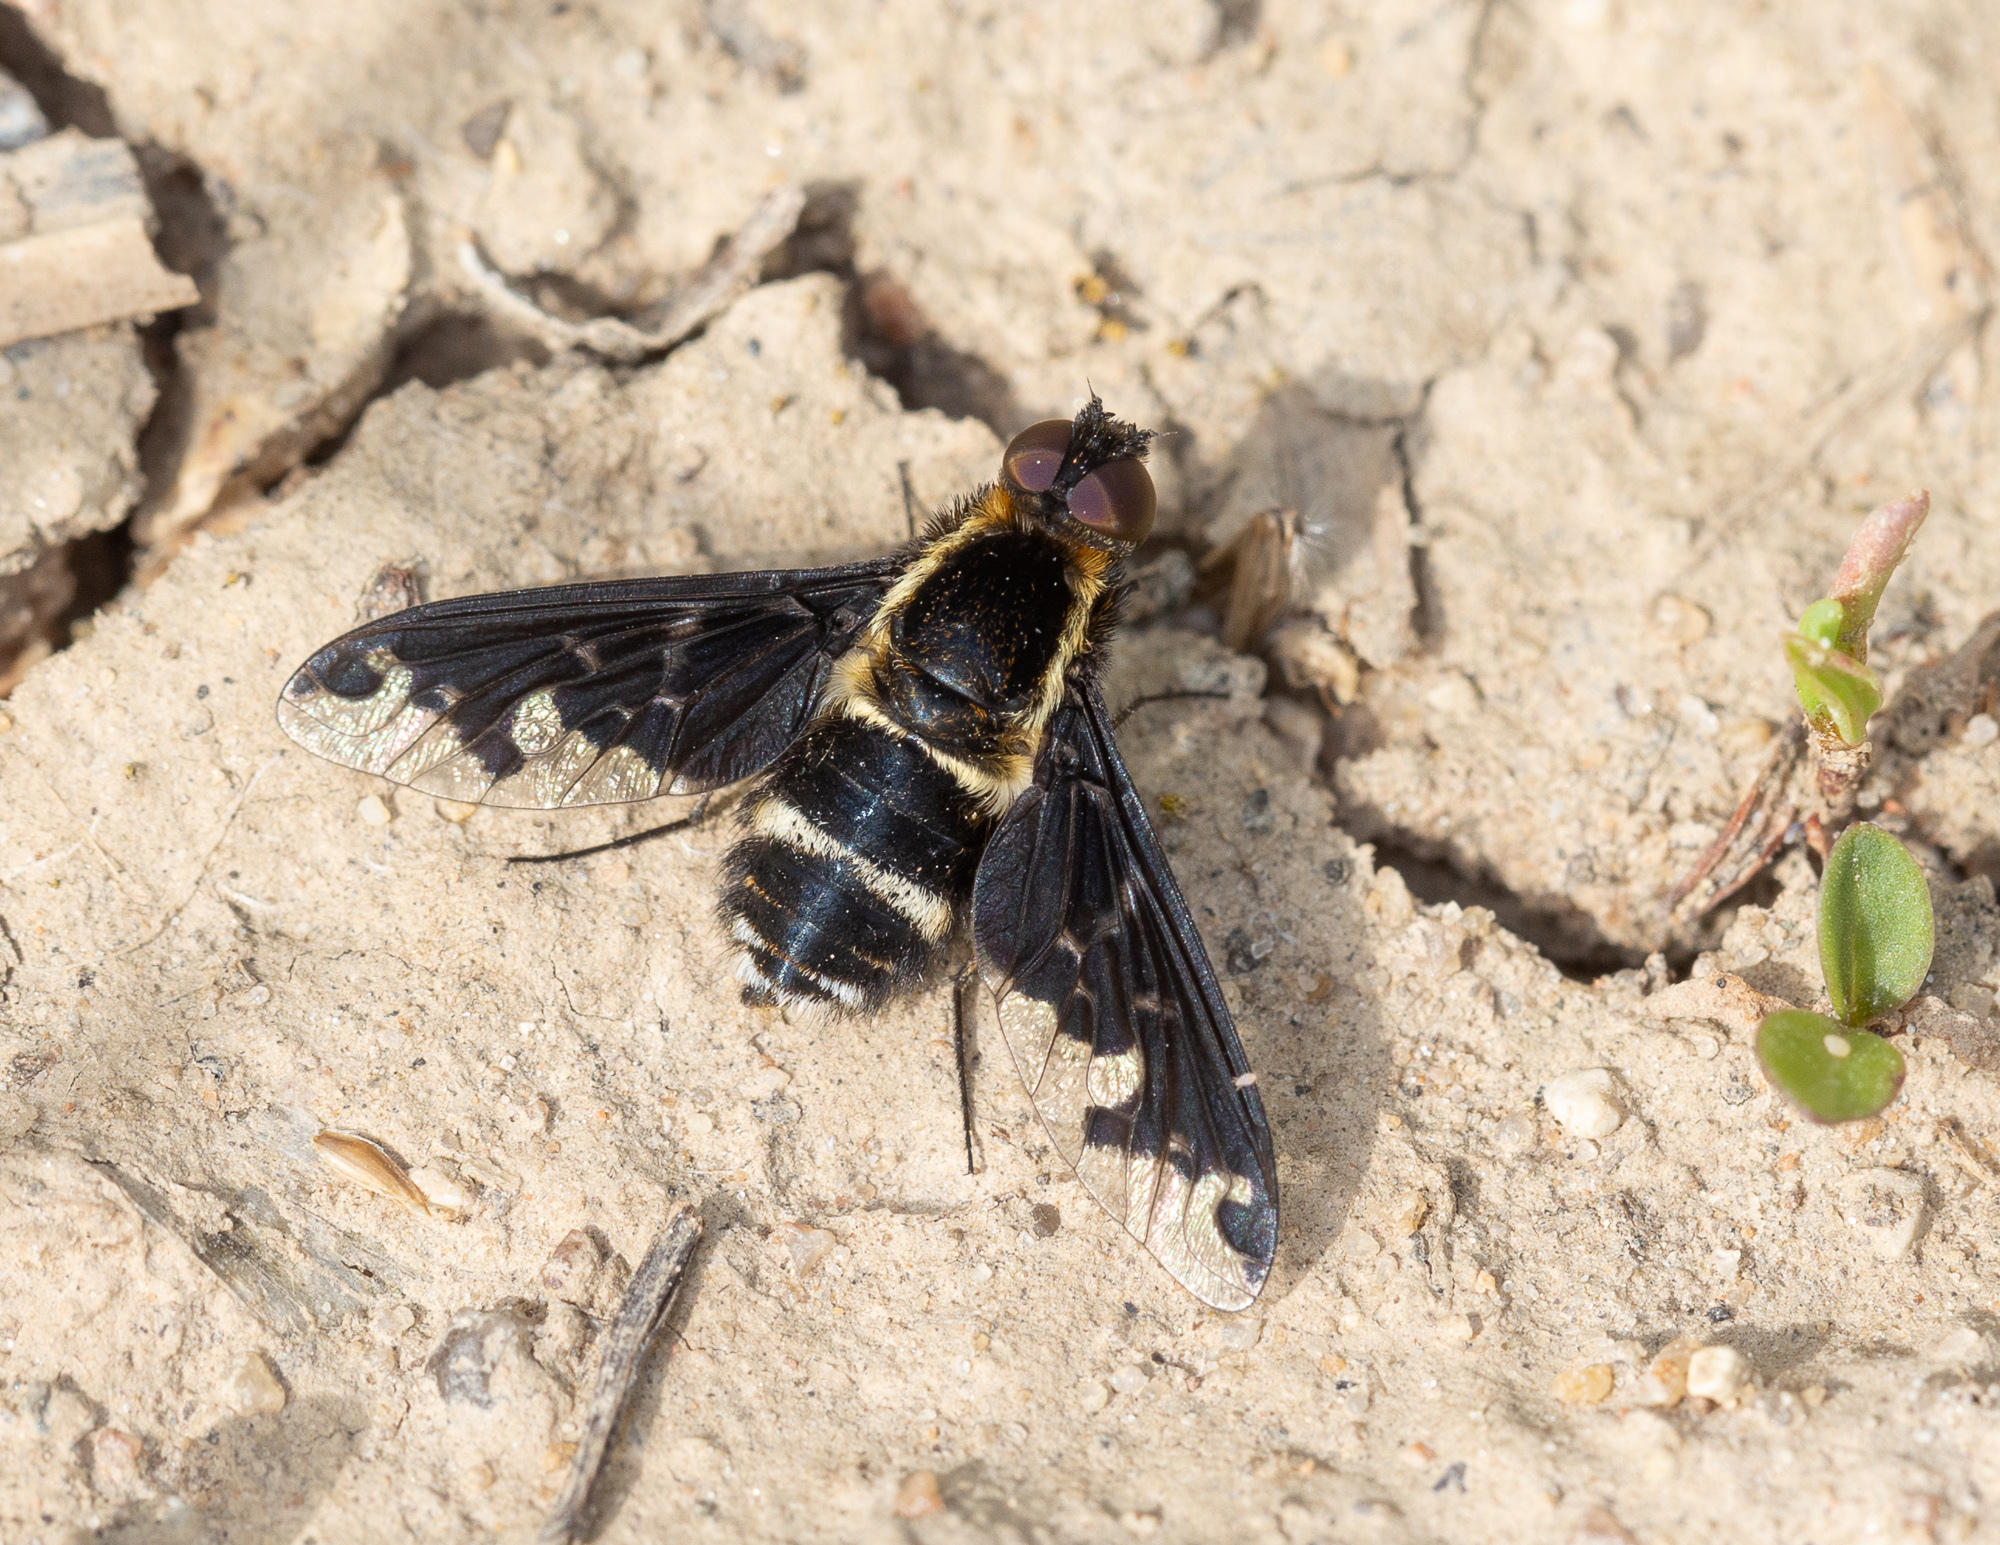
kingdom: Animalia
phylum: Arthropoda
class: Insecta
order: Diptera
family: Bombyliidae
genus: Hemipenthes
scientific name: Hemipenthes maura
